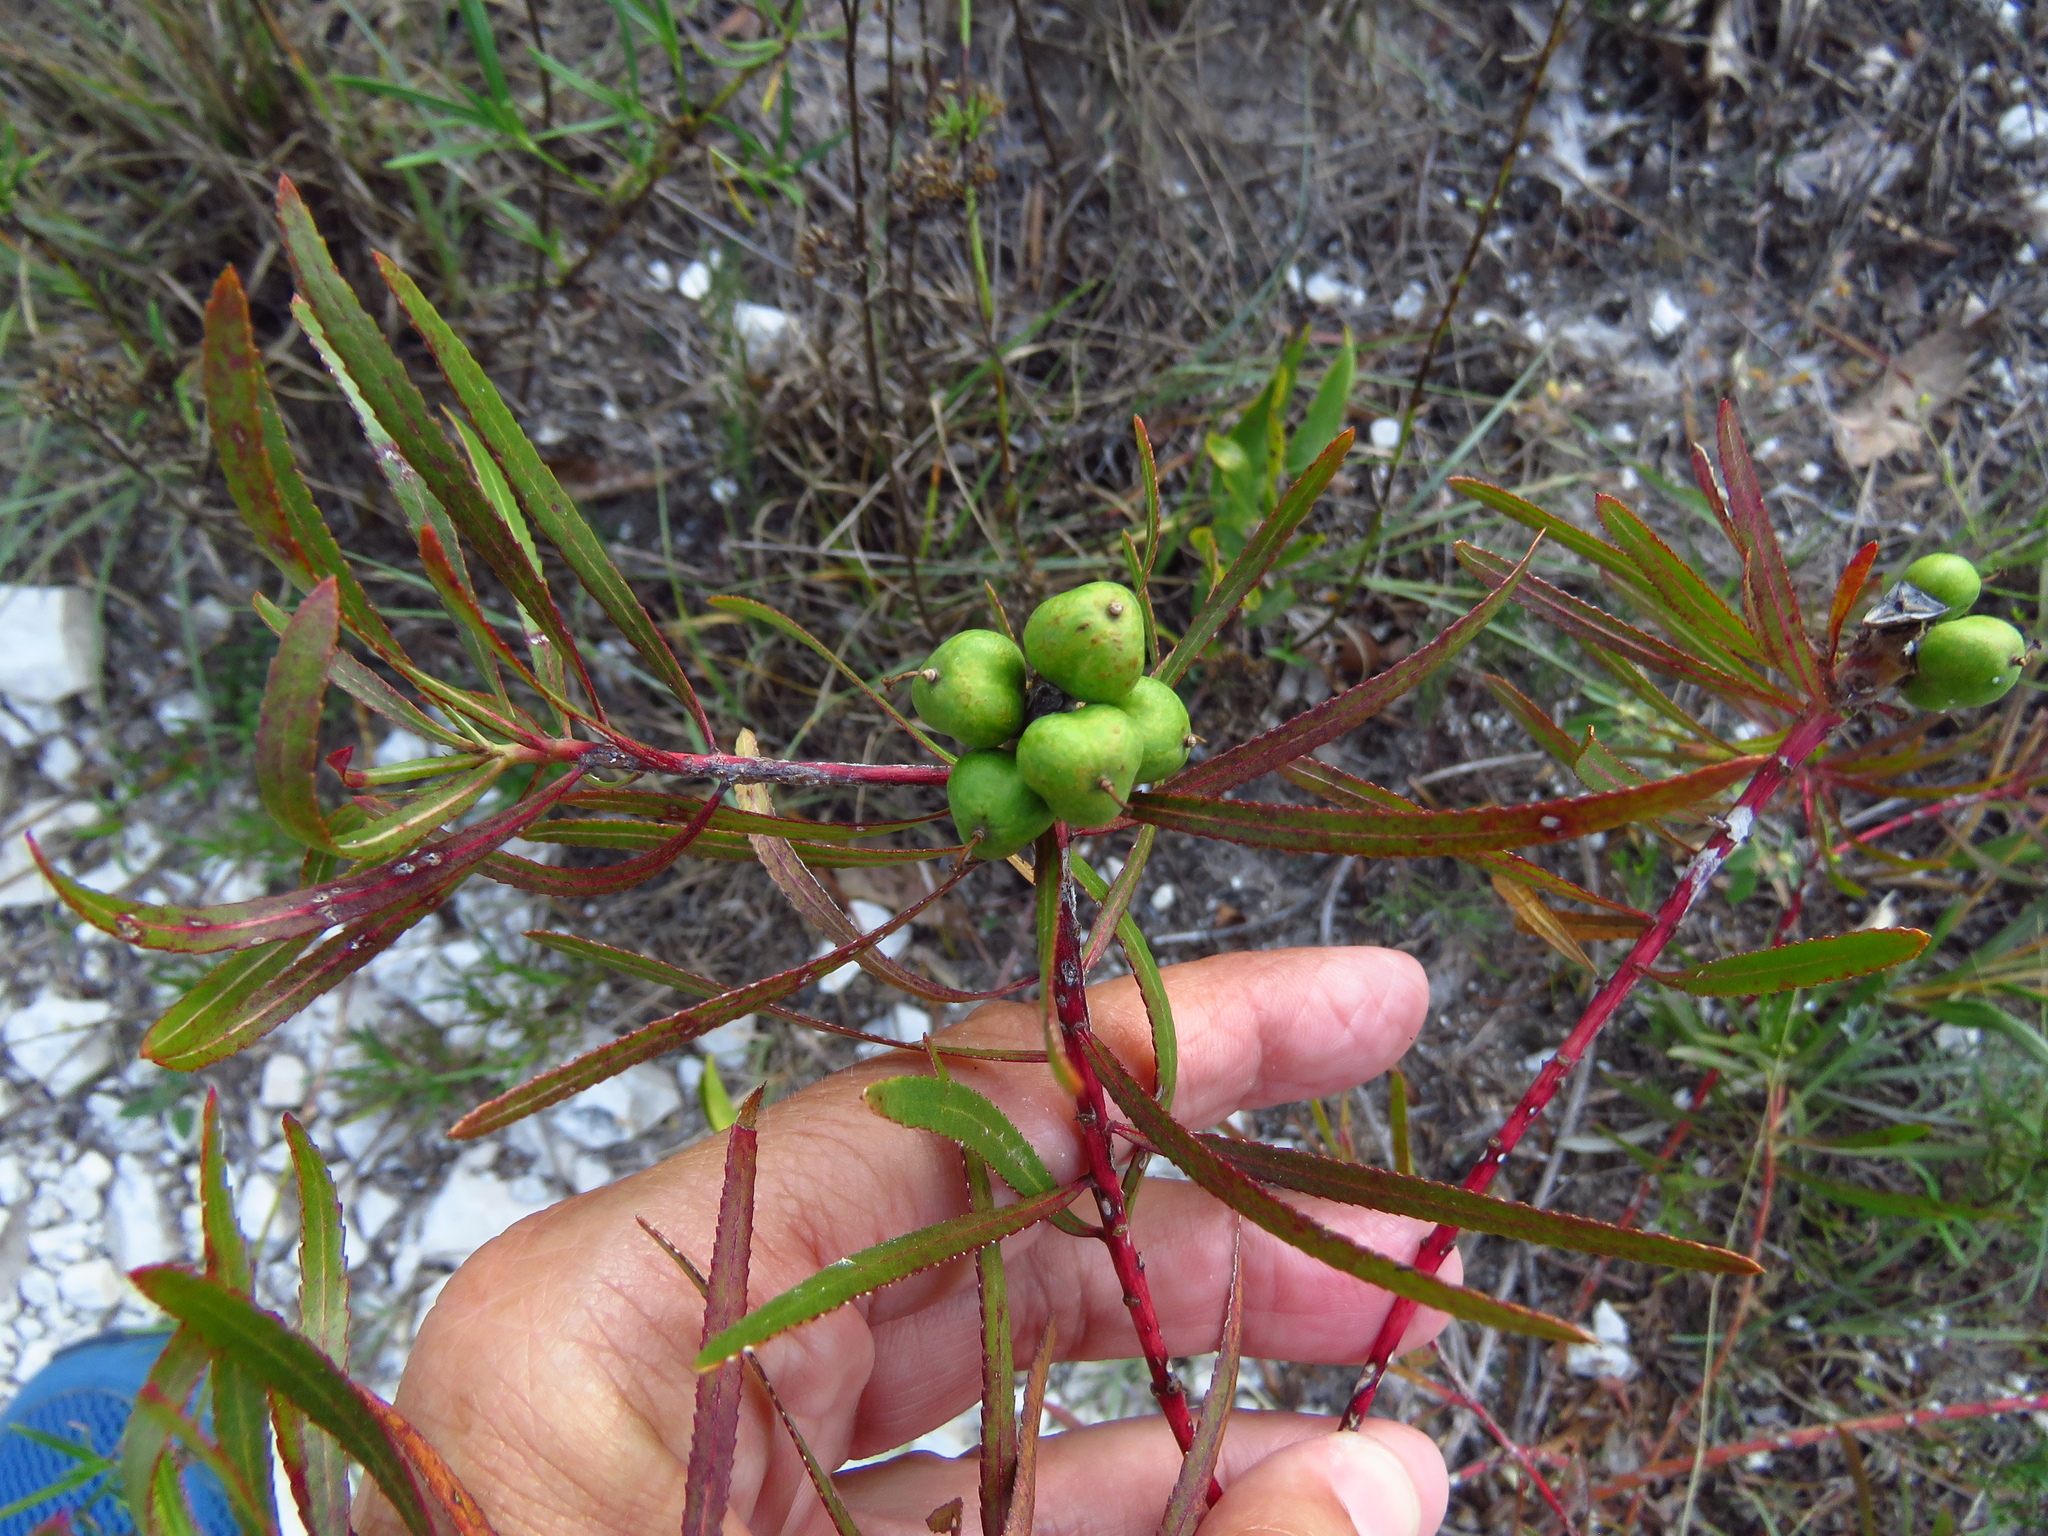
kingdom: Plantae
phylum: Tracheophyta
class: Magnoliopsida
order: Malpighiales
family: Euphorbiaceae
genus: Stillingia
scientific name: Stillingia texana
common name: Texas stillingia
